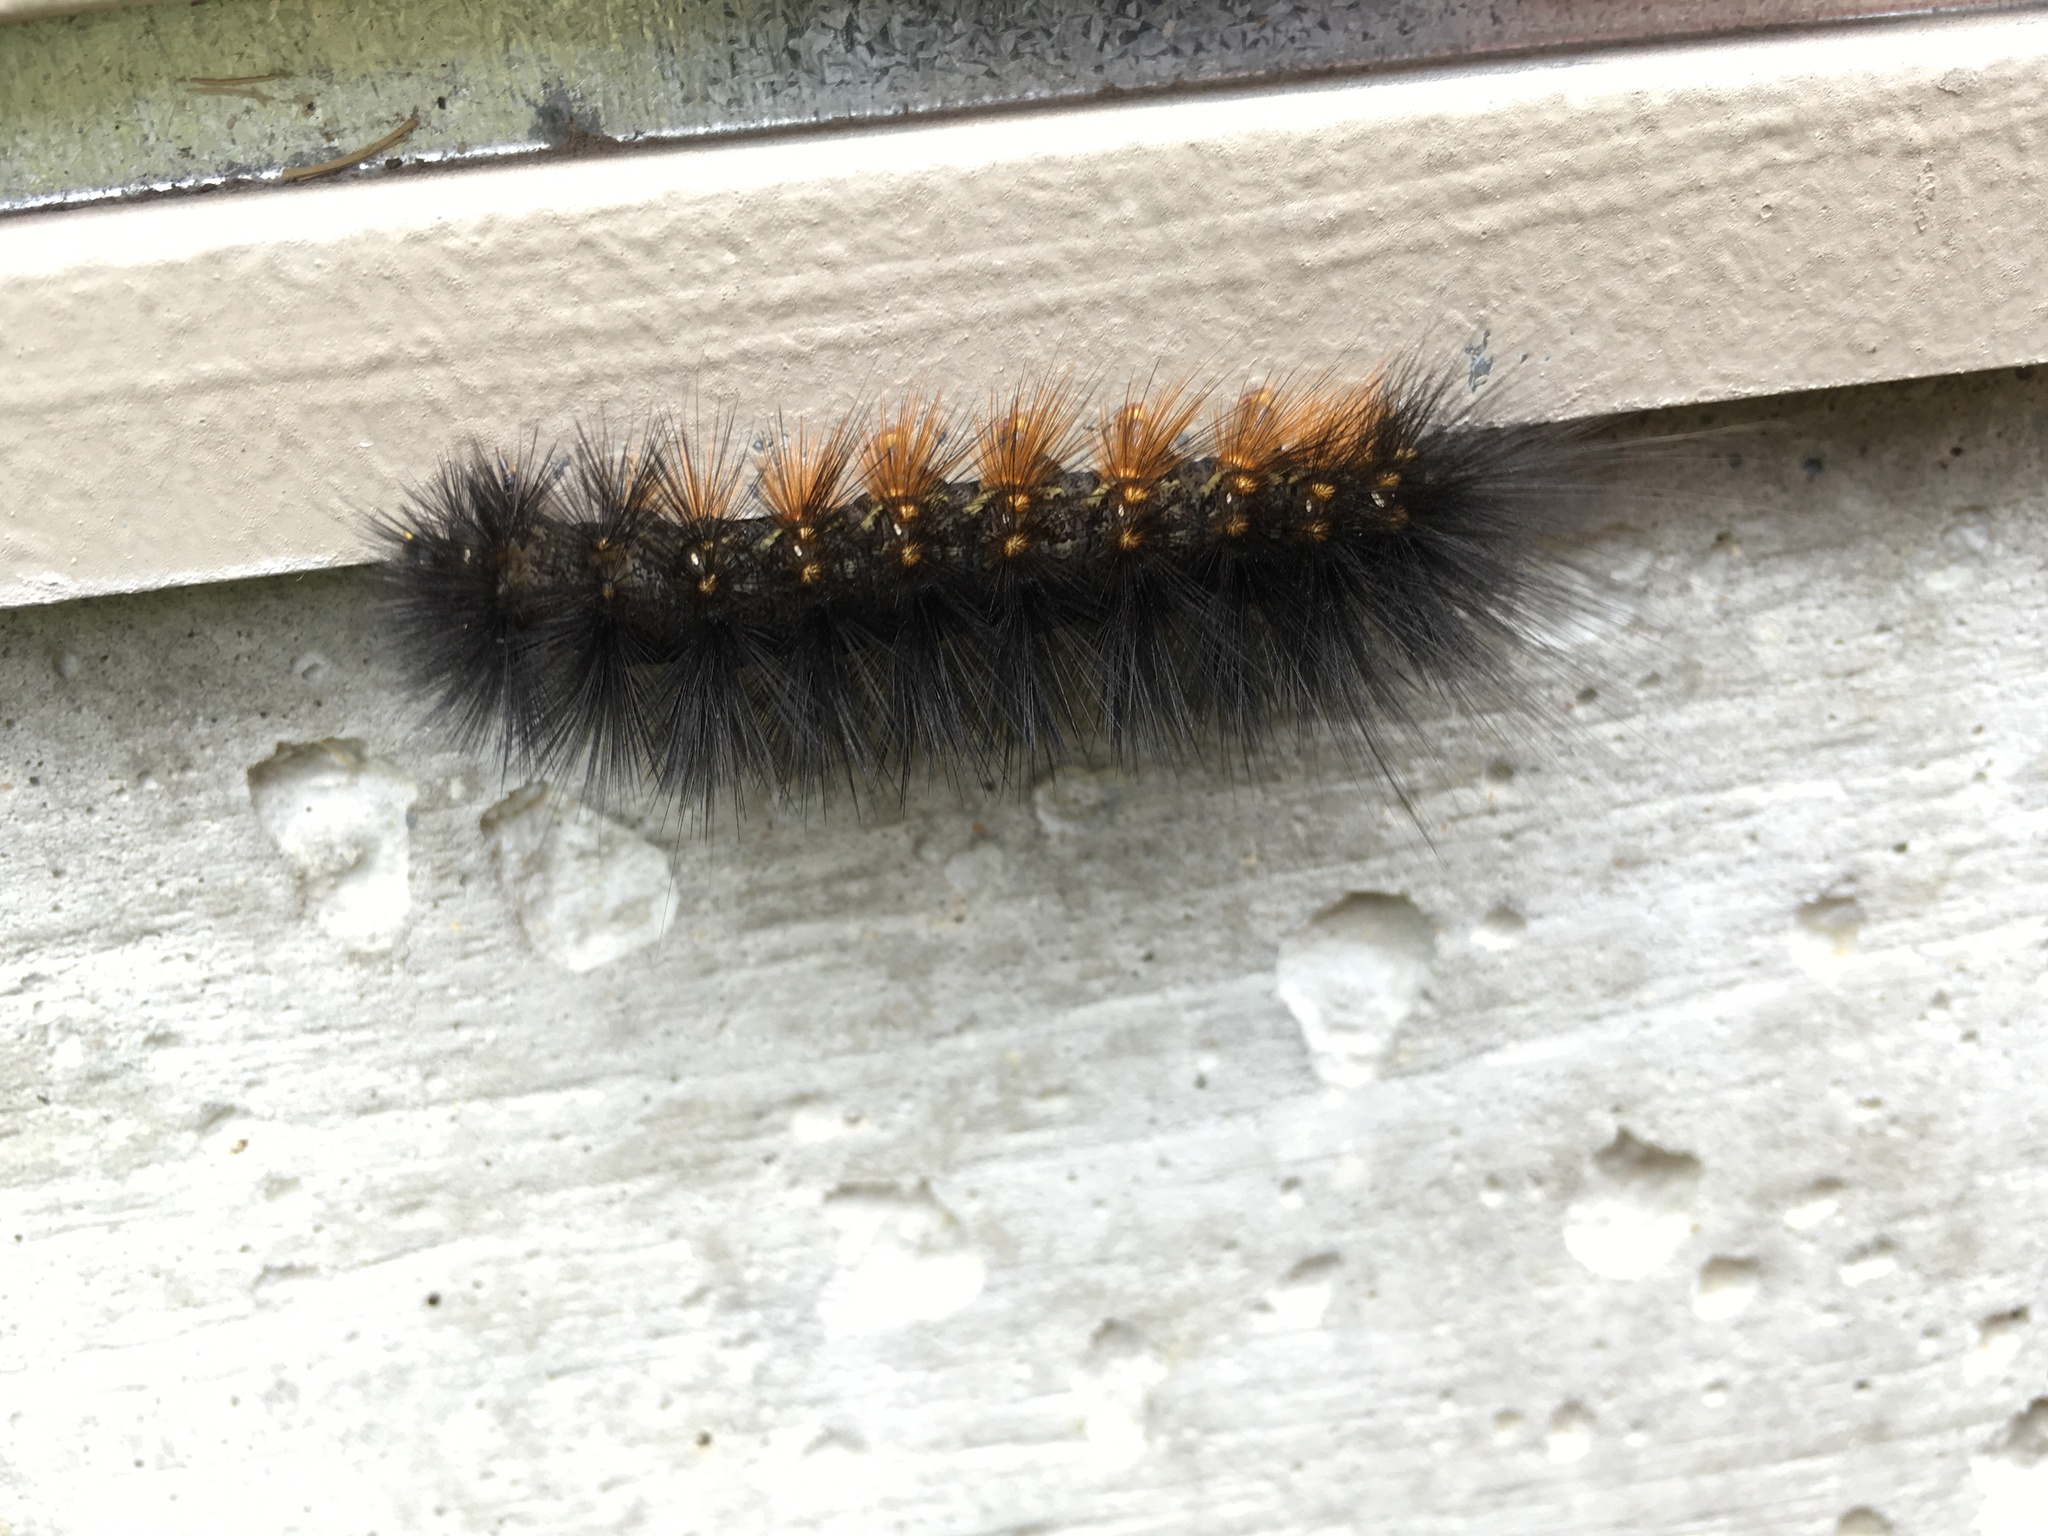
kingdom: Animalia
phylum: Arthropoda
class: Insecta
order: Lepidoptera
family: Erebidae
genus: Estigmene
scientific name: Estigmene acrea
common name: Salt marsh moth
